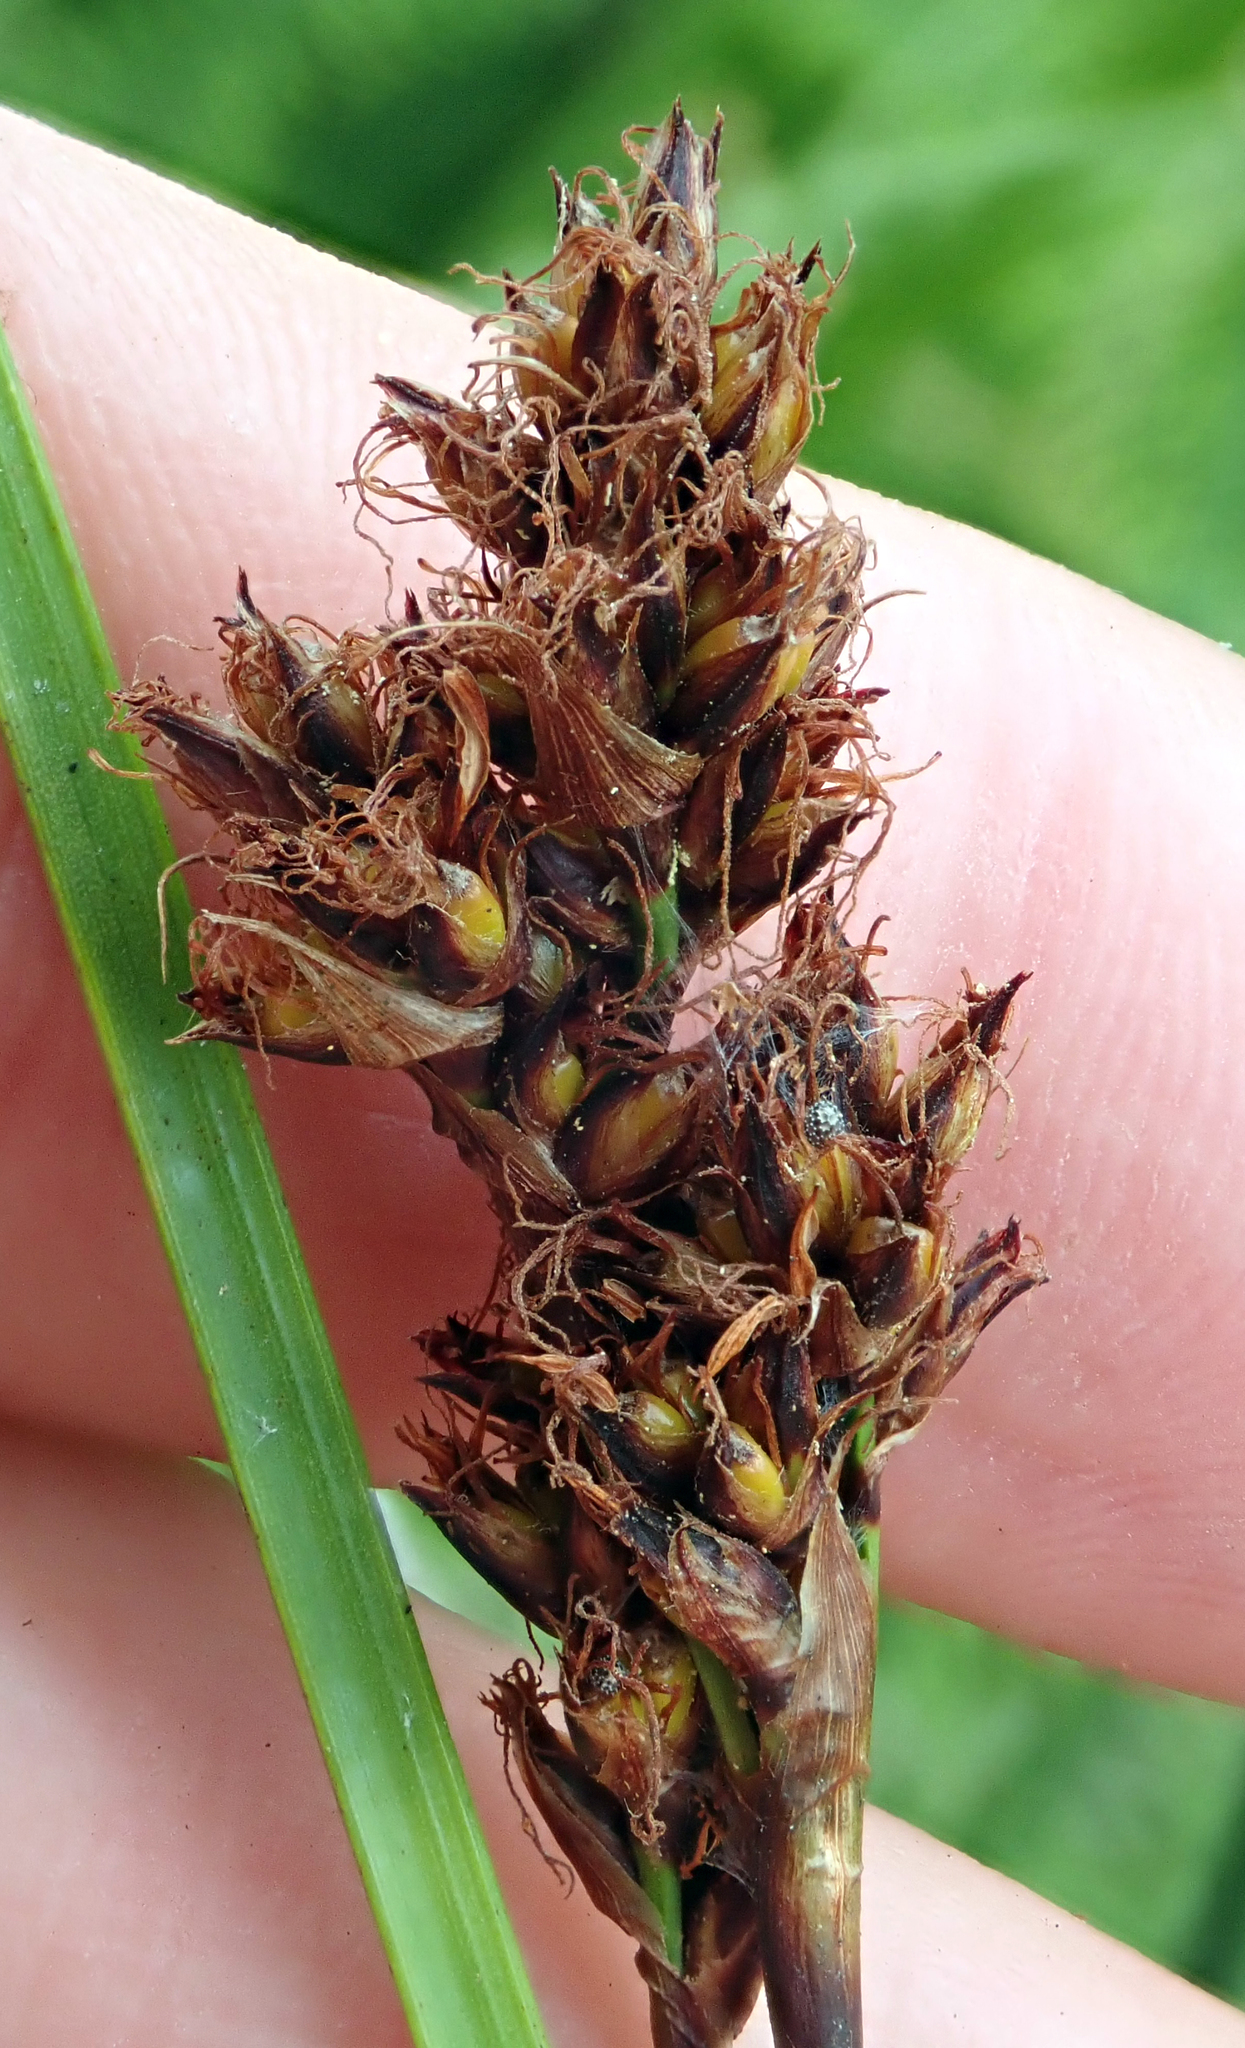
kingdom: Plantae
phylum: Tracheophyta
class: Liliopsida
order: Poales
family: Cyperaceae
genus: Machaerina
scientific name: Machaerina rubiginosa
